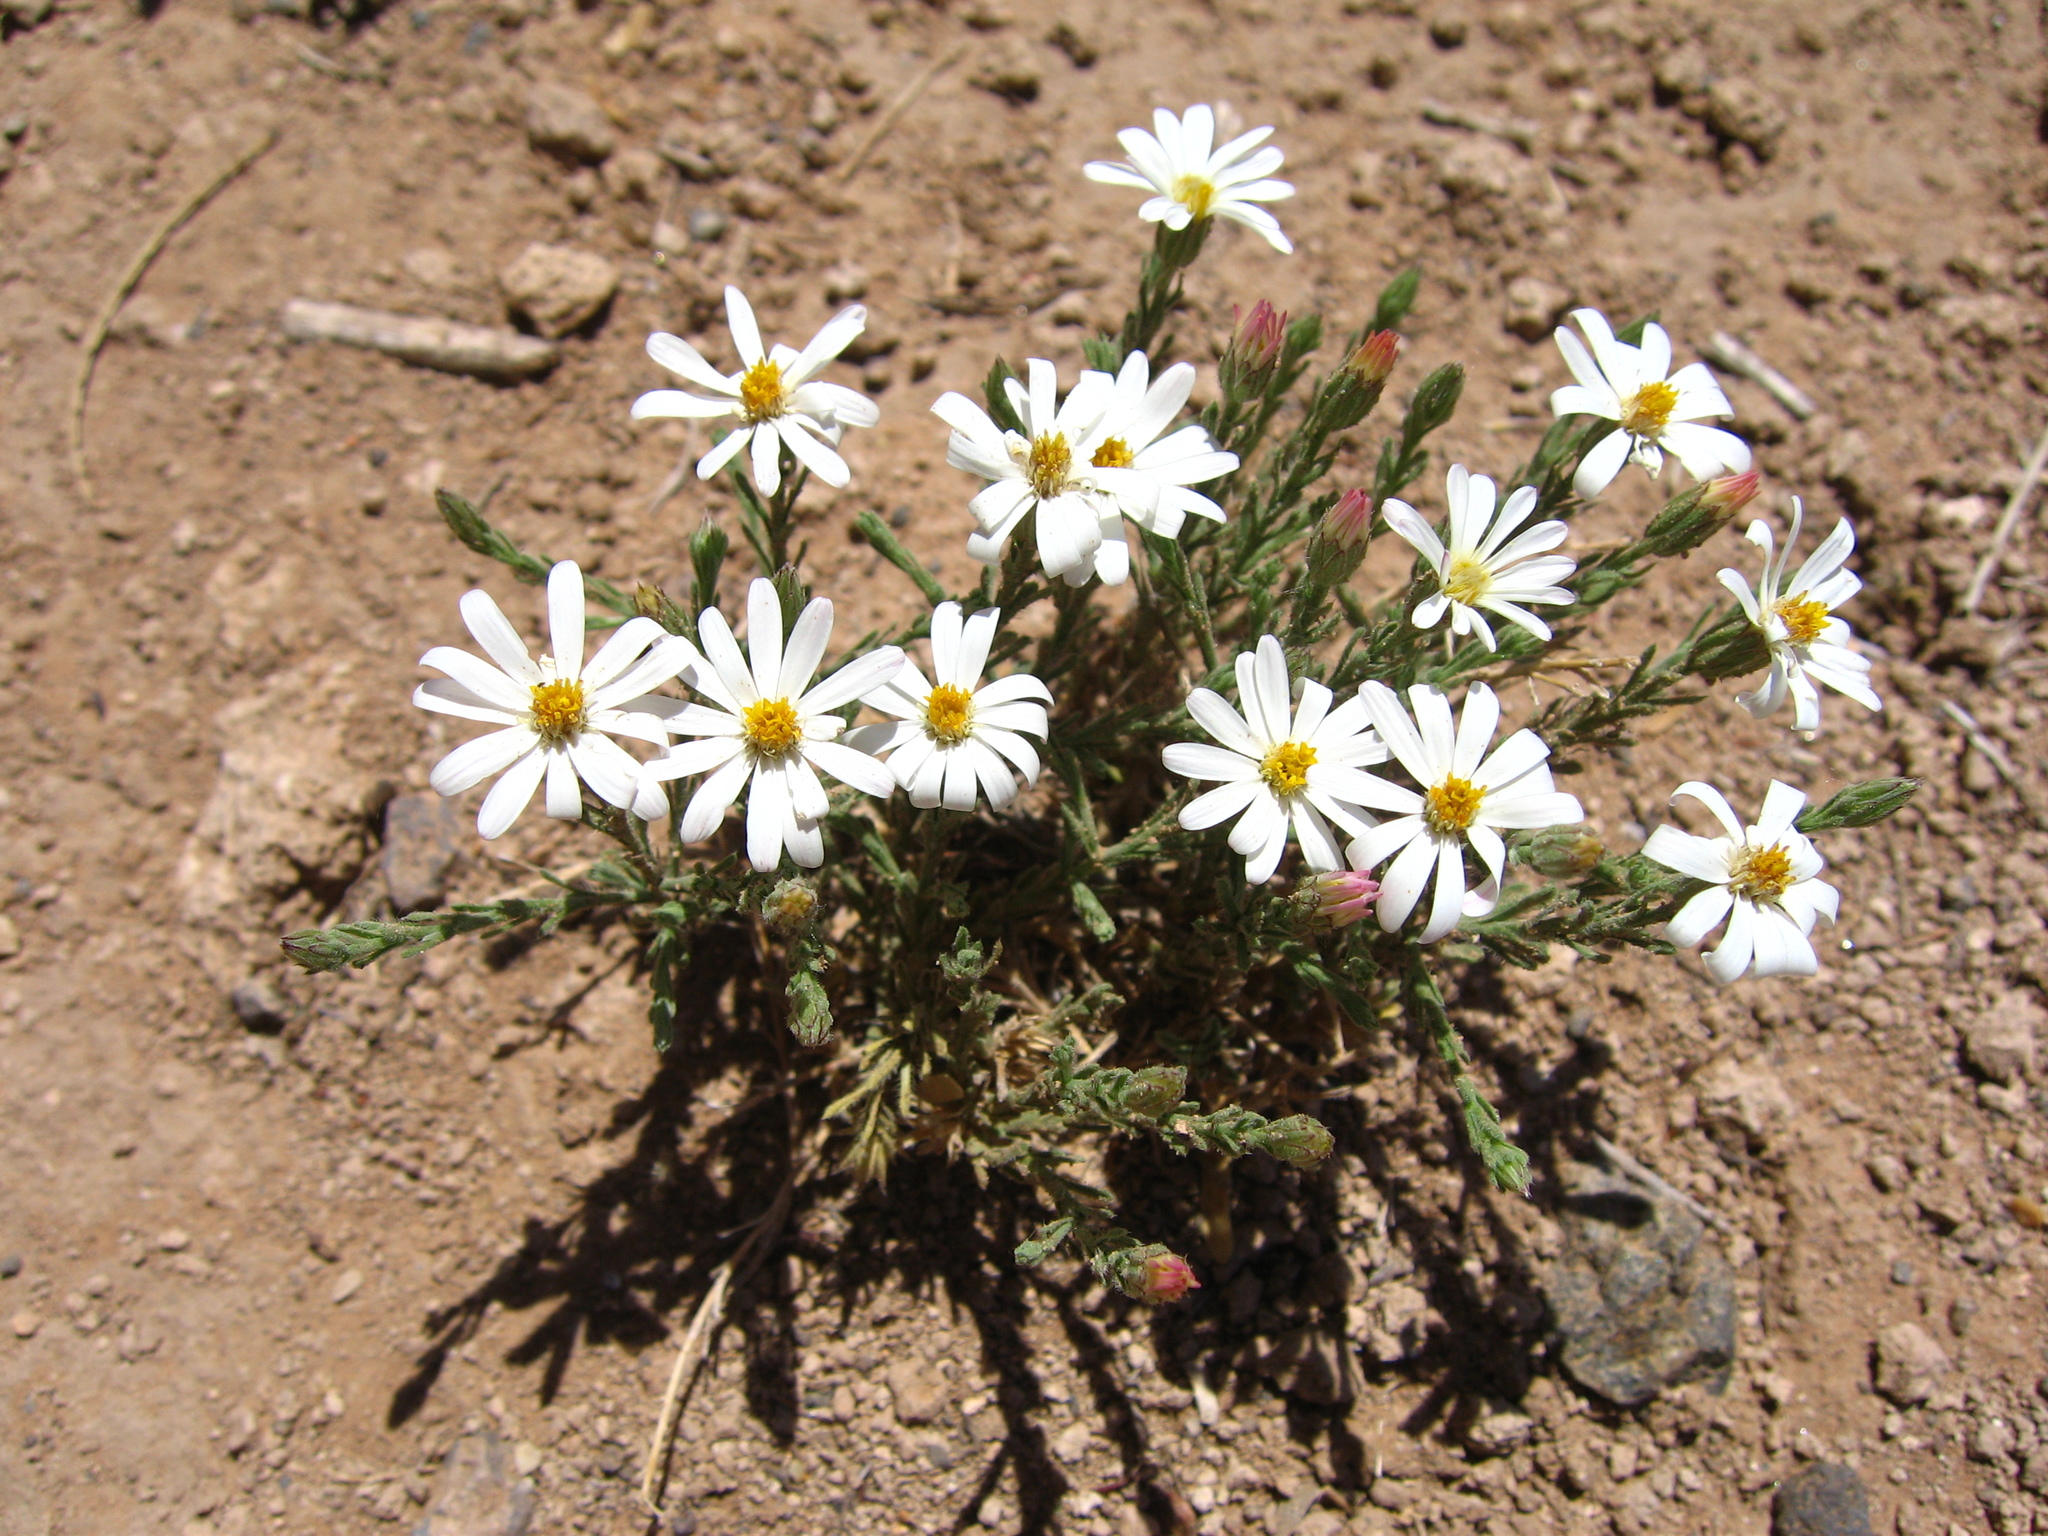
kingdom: Plantae
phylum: Tracheophyta
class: Magnoliopsida
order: Asterales
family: Asteraceae
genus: Chaetopappa
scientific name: Chaetopappa ericoides
